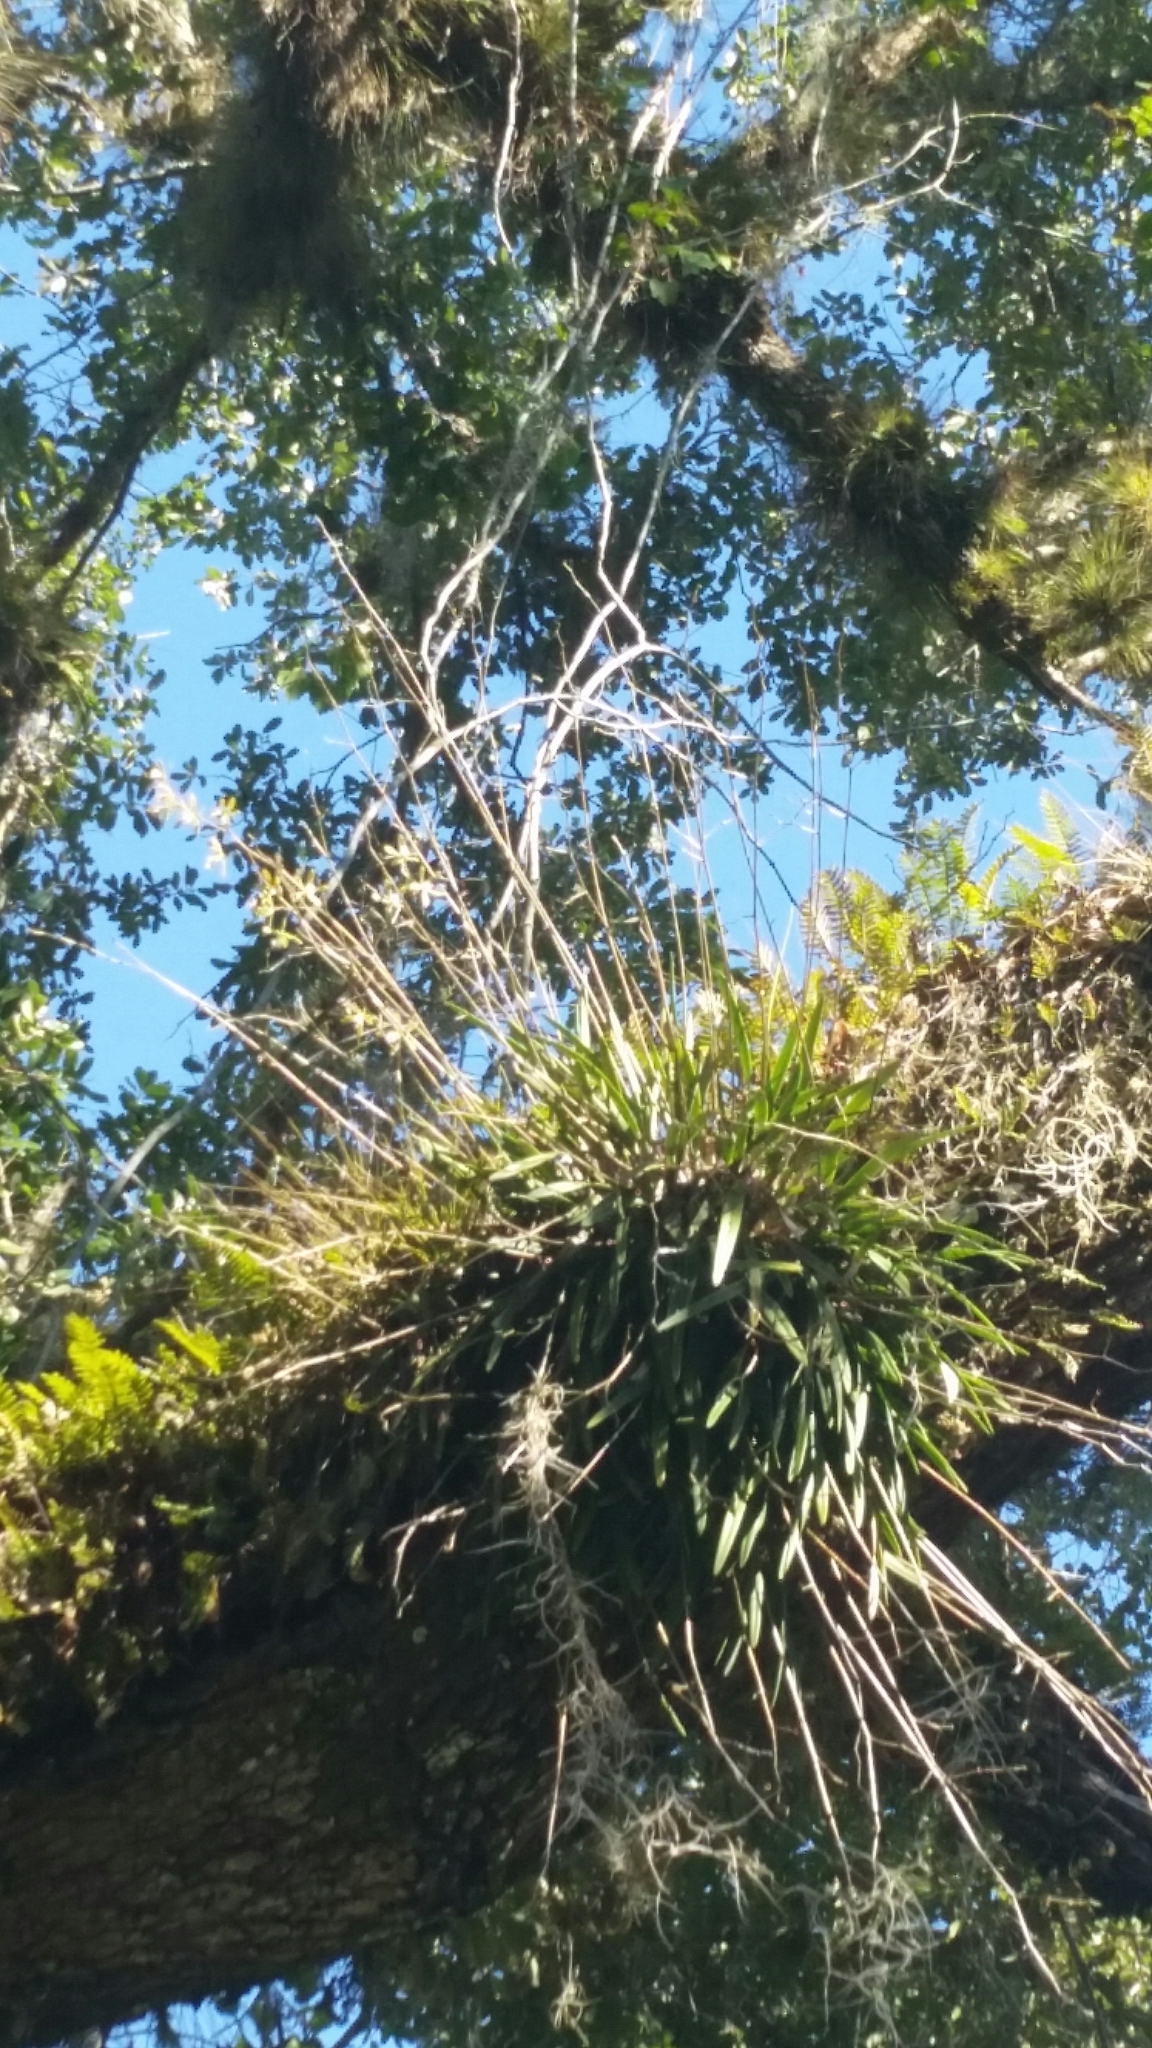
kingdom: Plantae
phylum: Tracheophyta
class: Liliopsida
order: Asparagales
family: Orchidaceae
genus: Encyclia
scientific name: Encyclia tampensis
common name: Florida butterfly orchid
